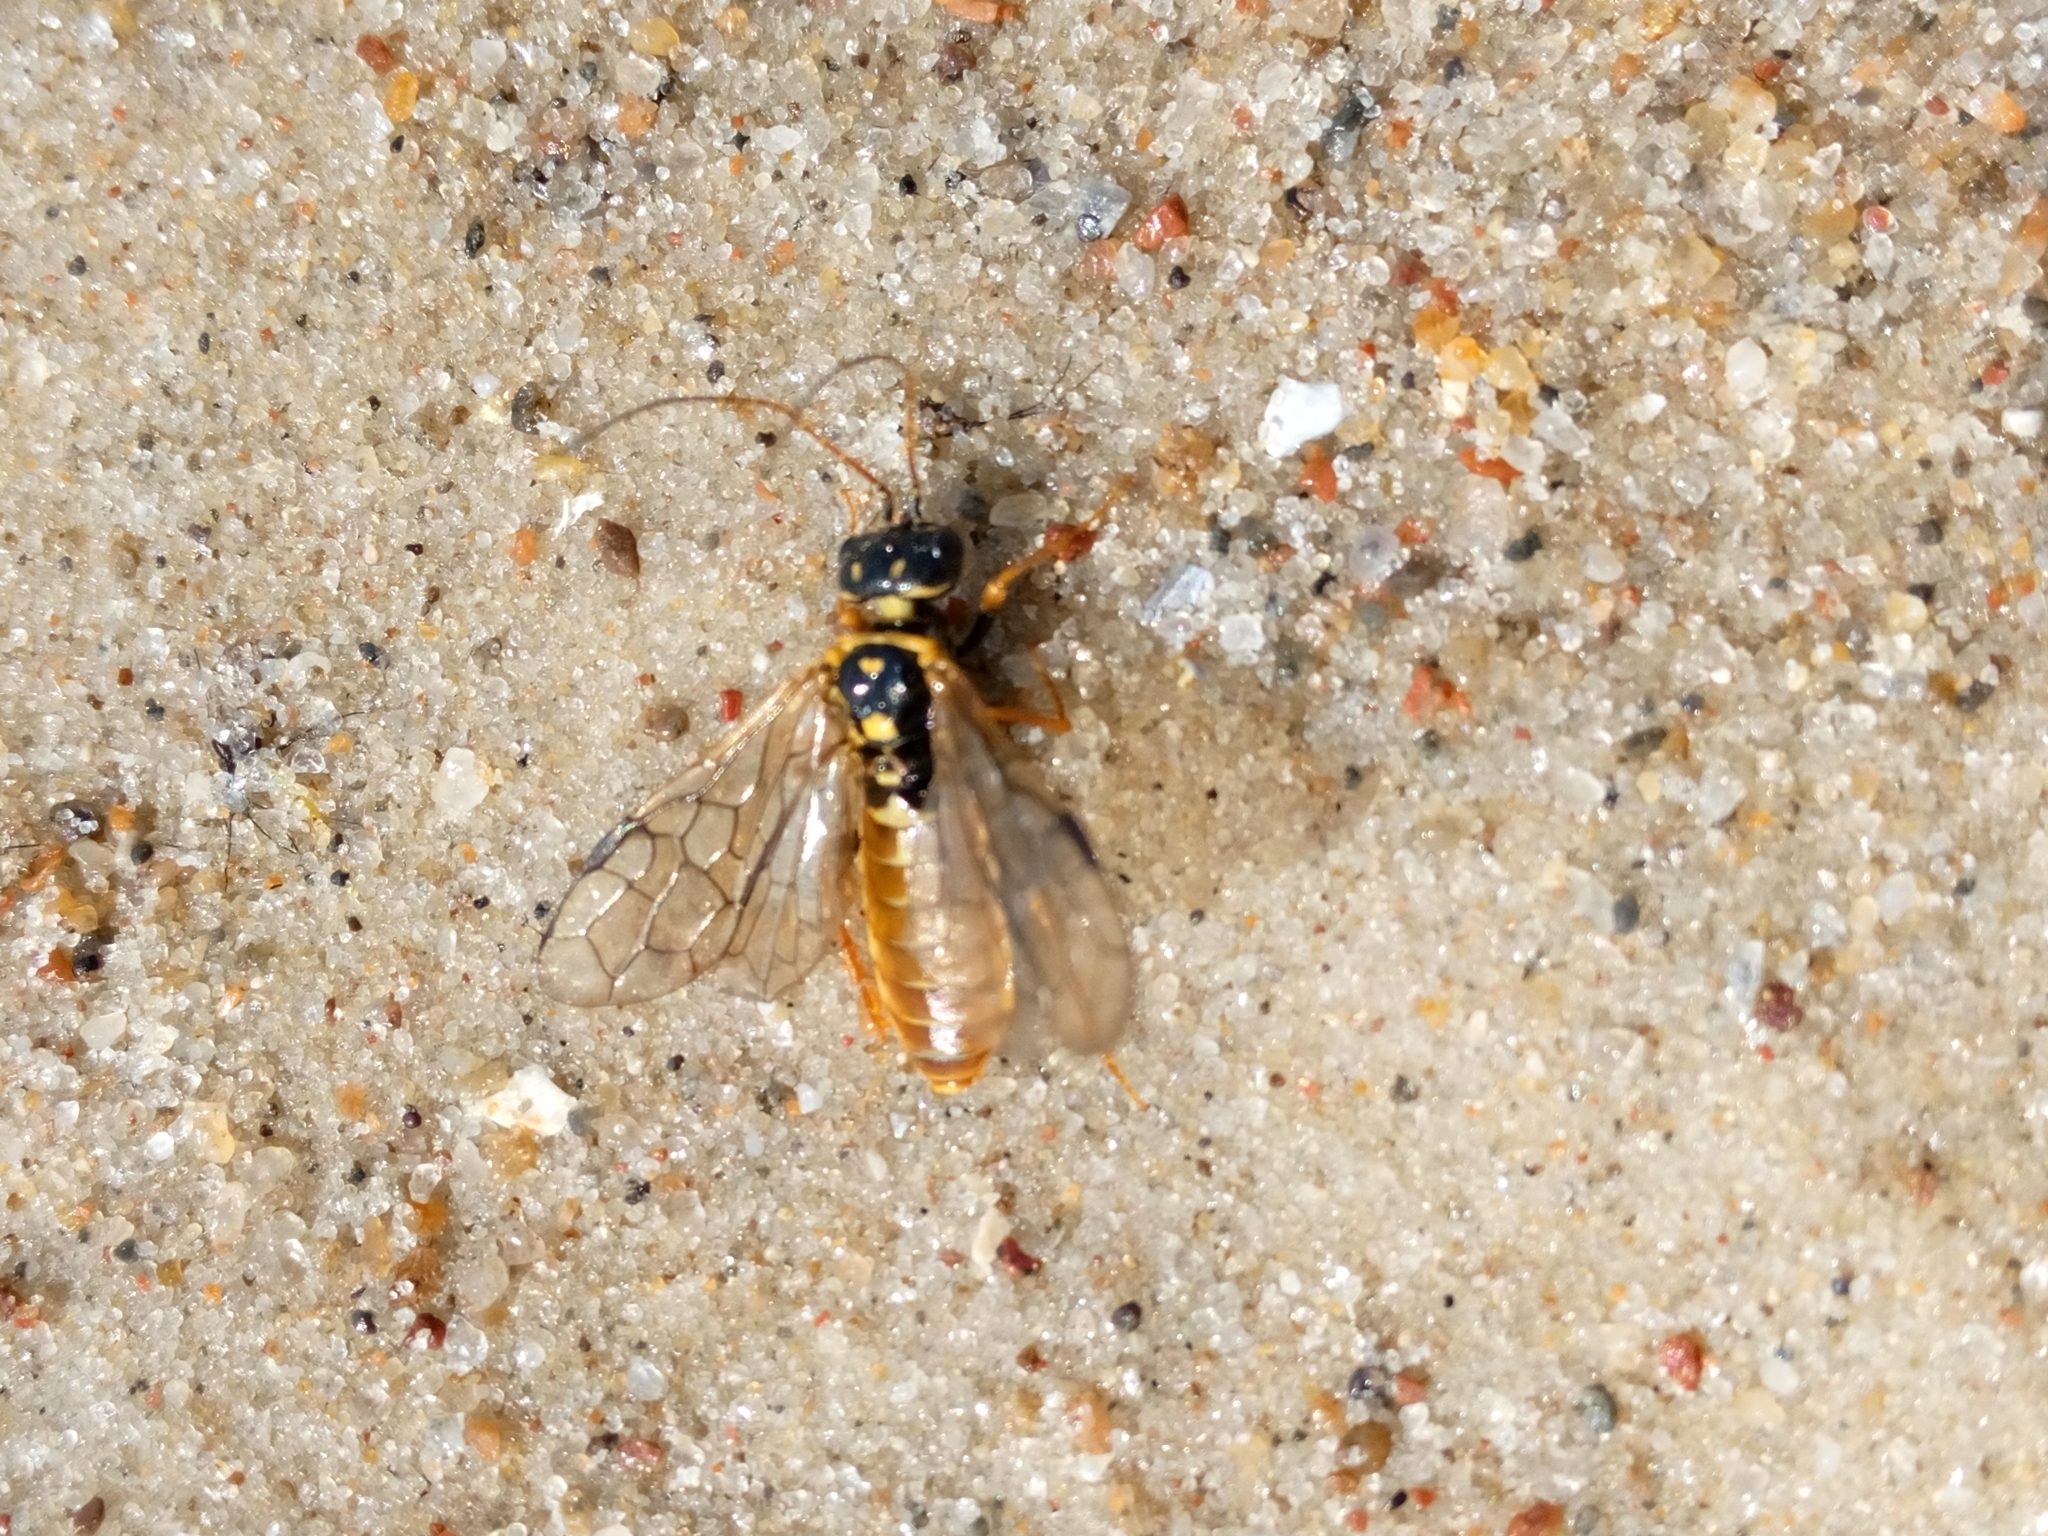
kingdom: Animalia
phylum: Arthropoda
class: Insecta
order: Hymenoptera
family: Pamphiliidae
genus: Acantholyda
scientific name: Acantholyda posticalis
